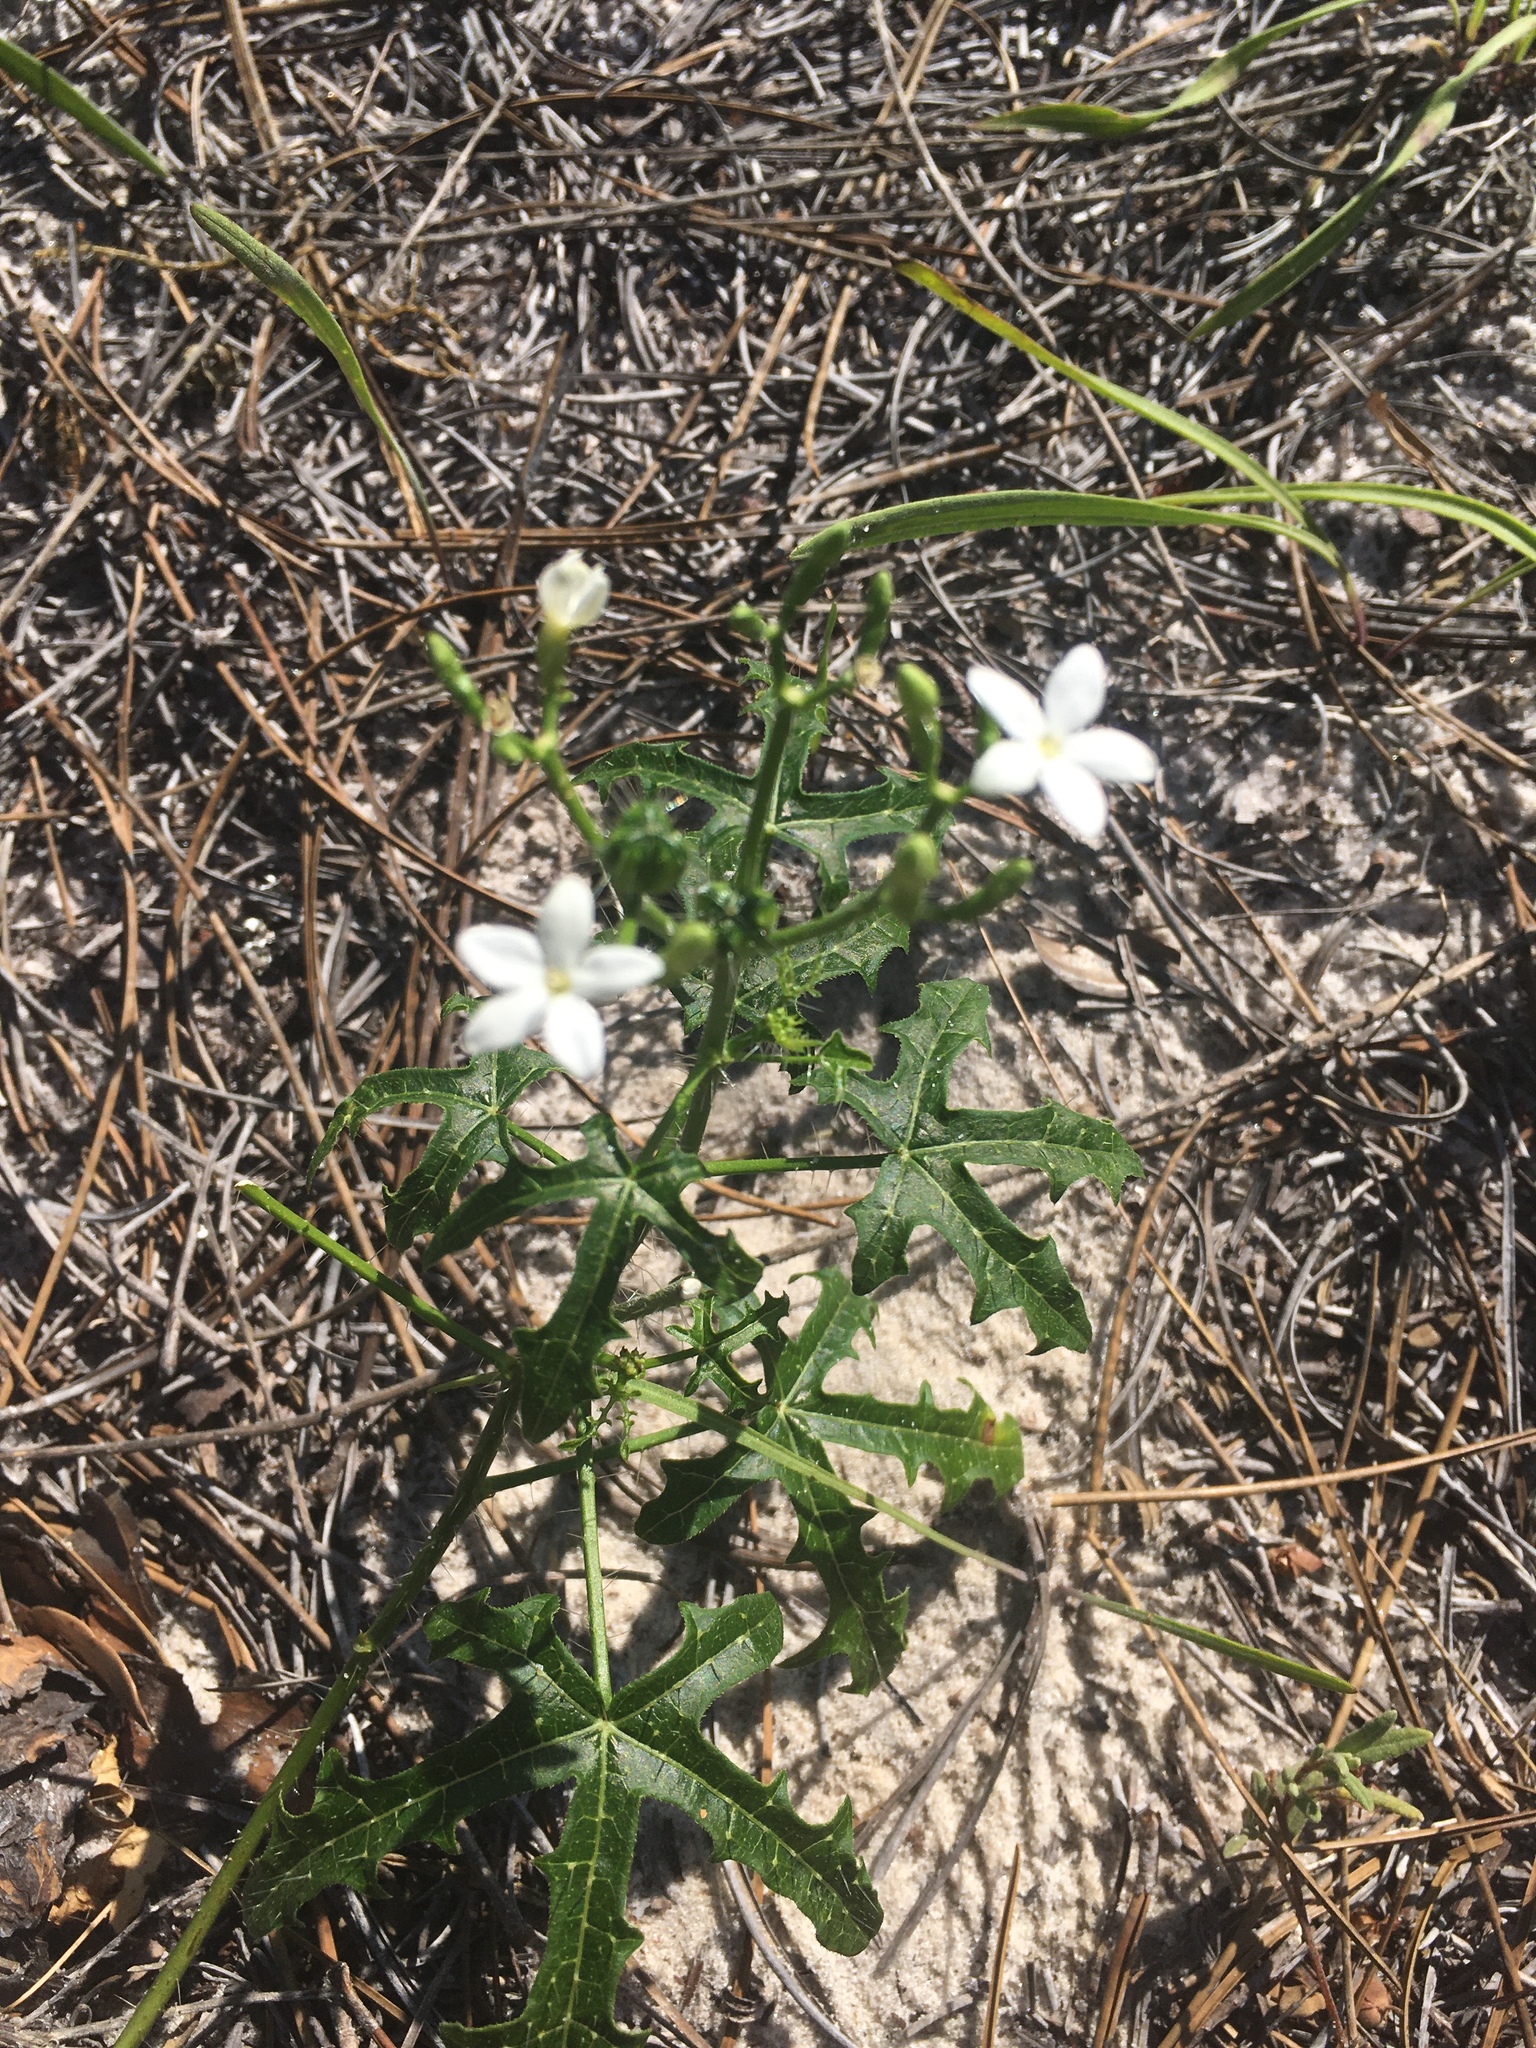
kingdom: Plantae
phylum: Tracheophyta
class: Magnoliopsida
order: Malpighiales
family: Euphorbiaceae
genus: Cnidoscolus
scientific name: Cnidoscolus stimulosus
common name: Bull-nettle
